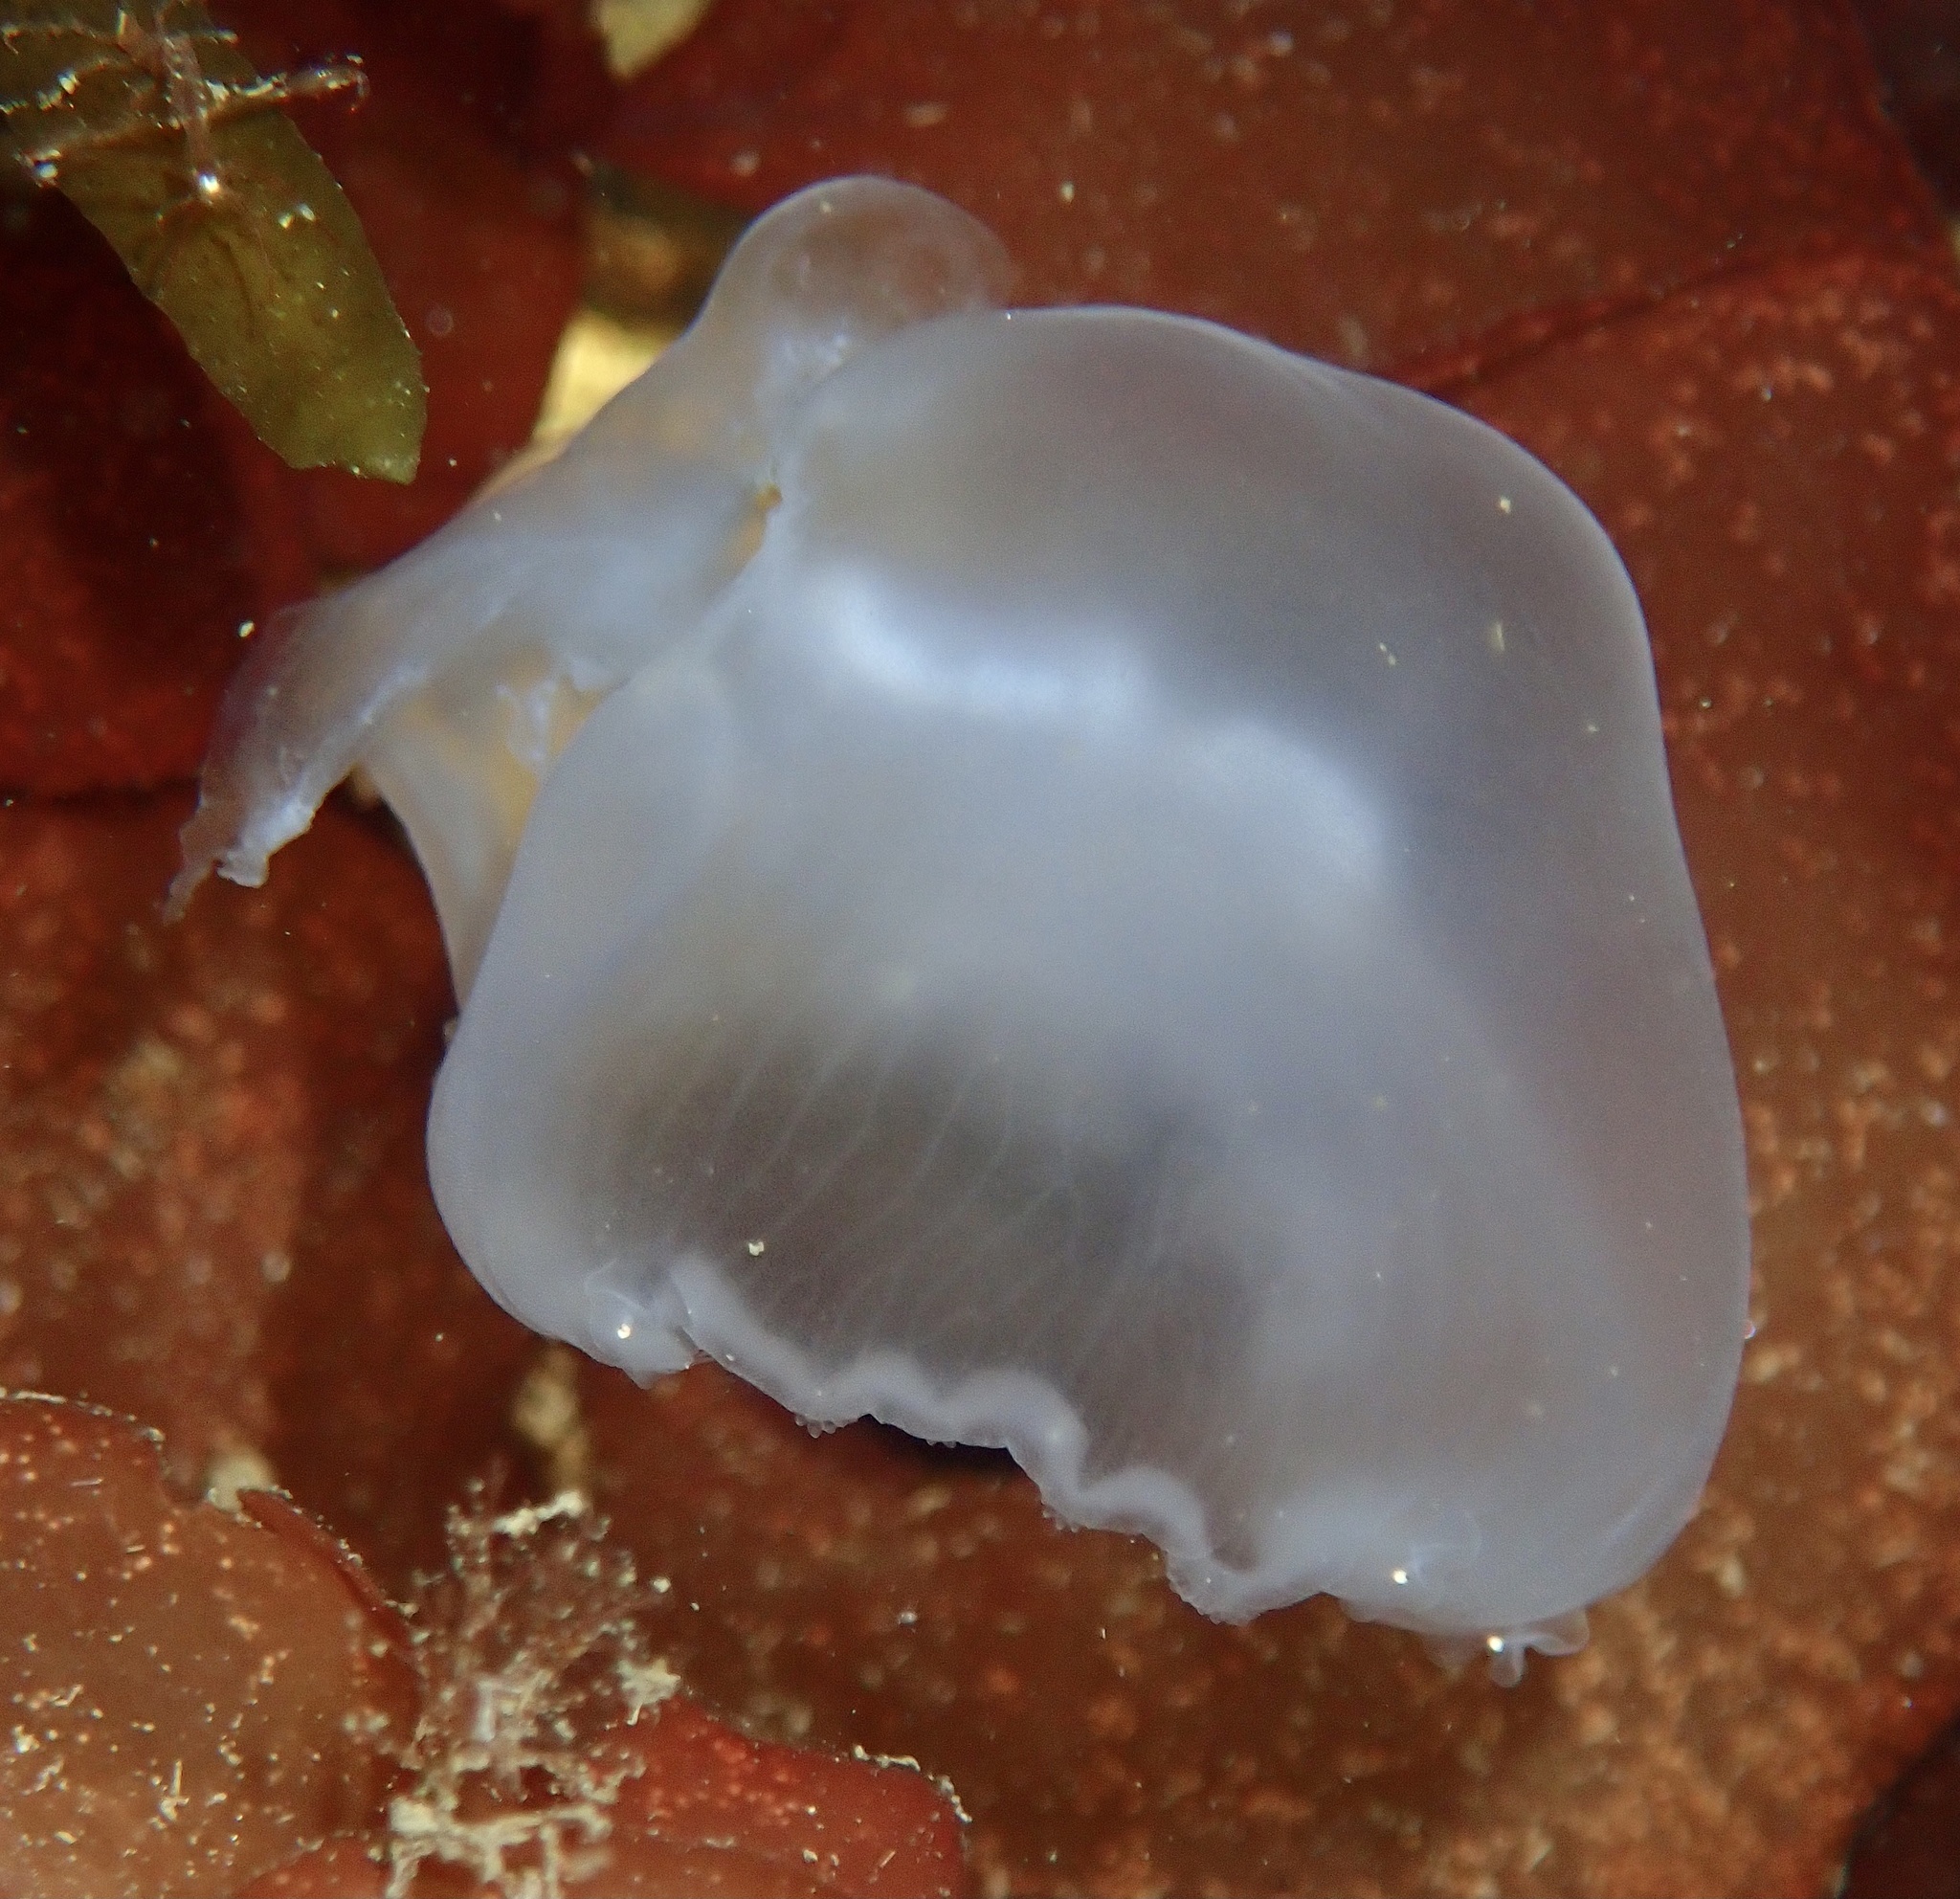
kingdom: Animalia
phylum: Cnidaria
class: Scyphozoa
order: Semaeostomeae
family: Ulmaridae
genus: Aurelia
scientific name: Aurelia aurita
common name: Moon jellyfish
